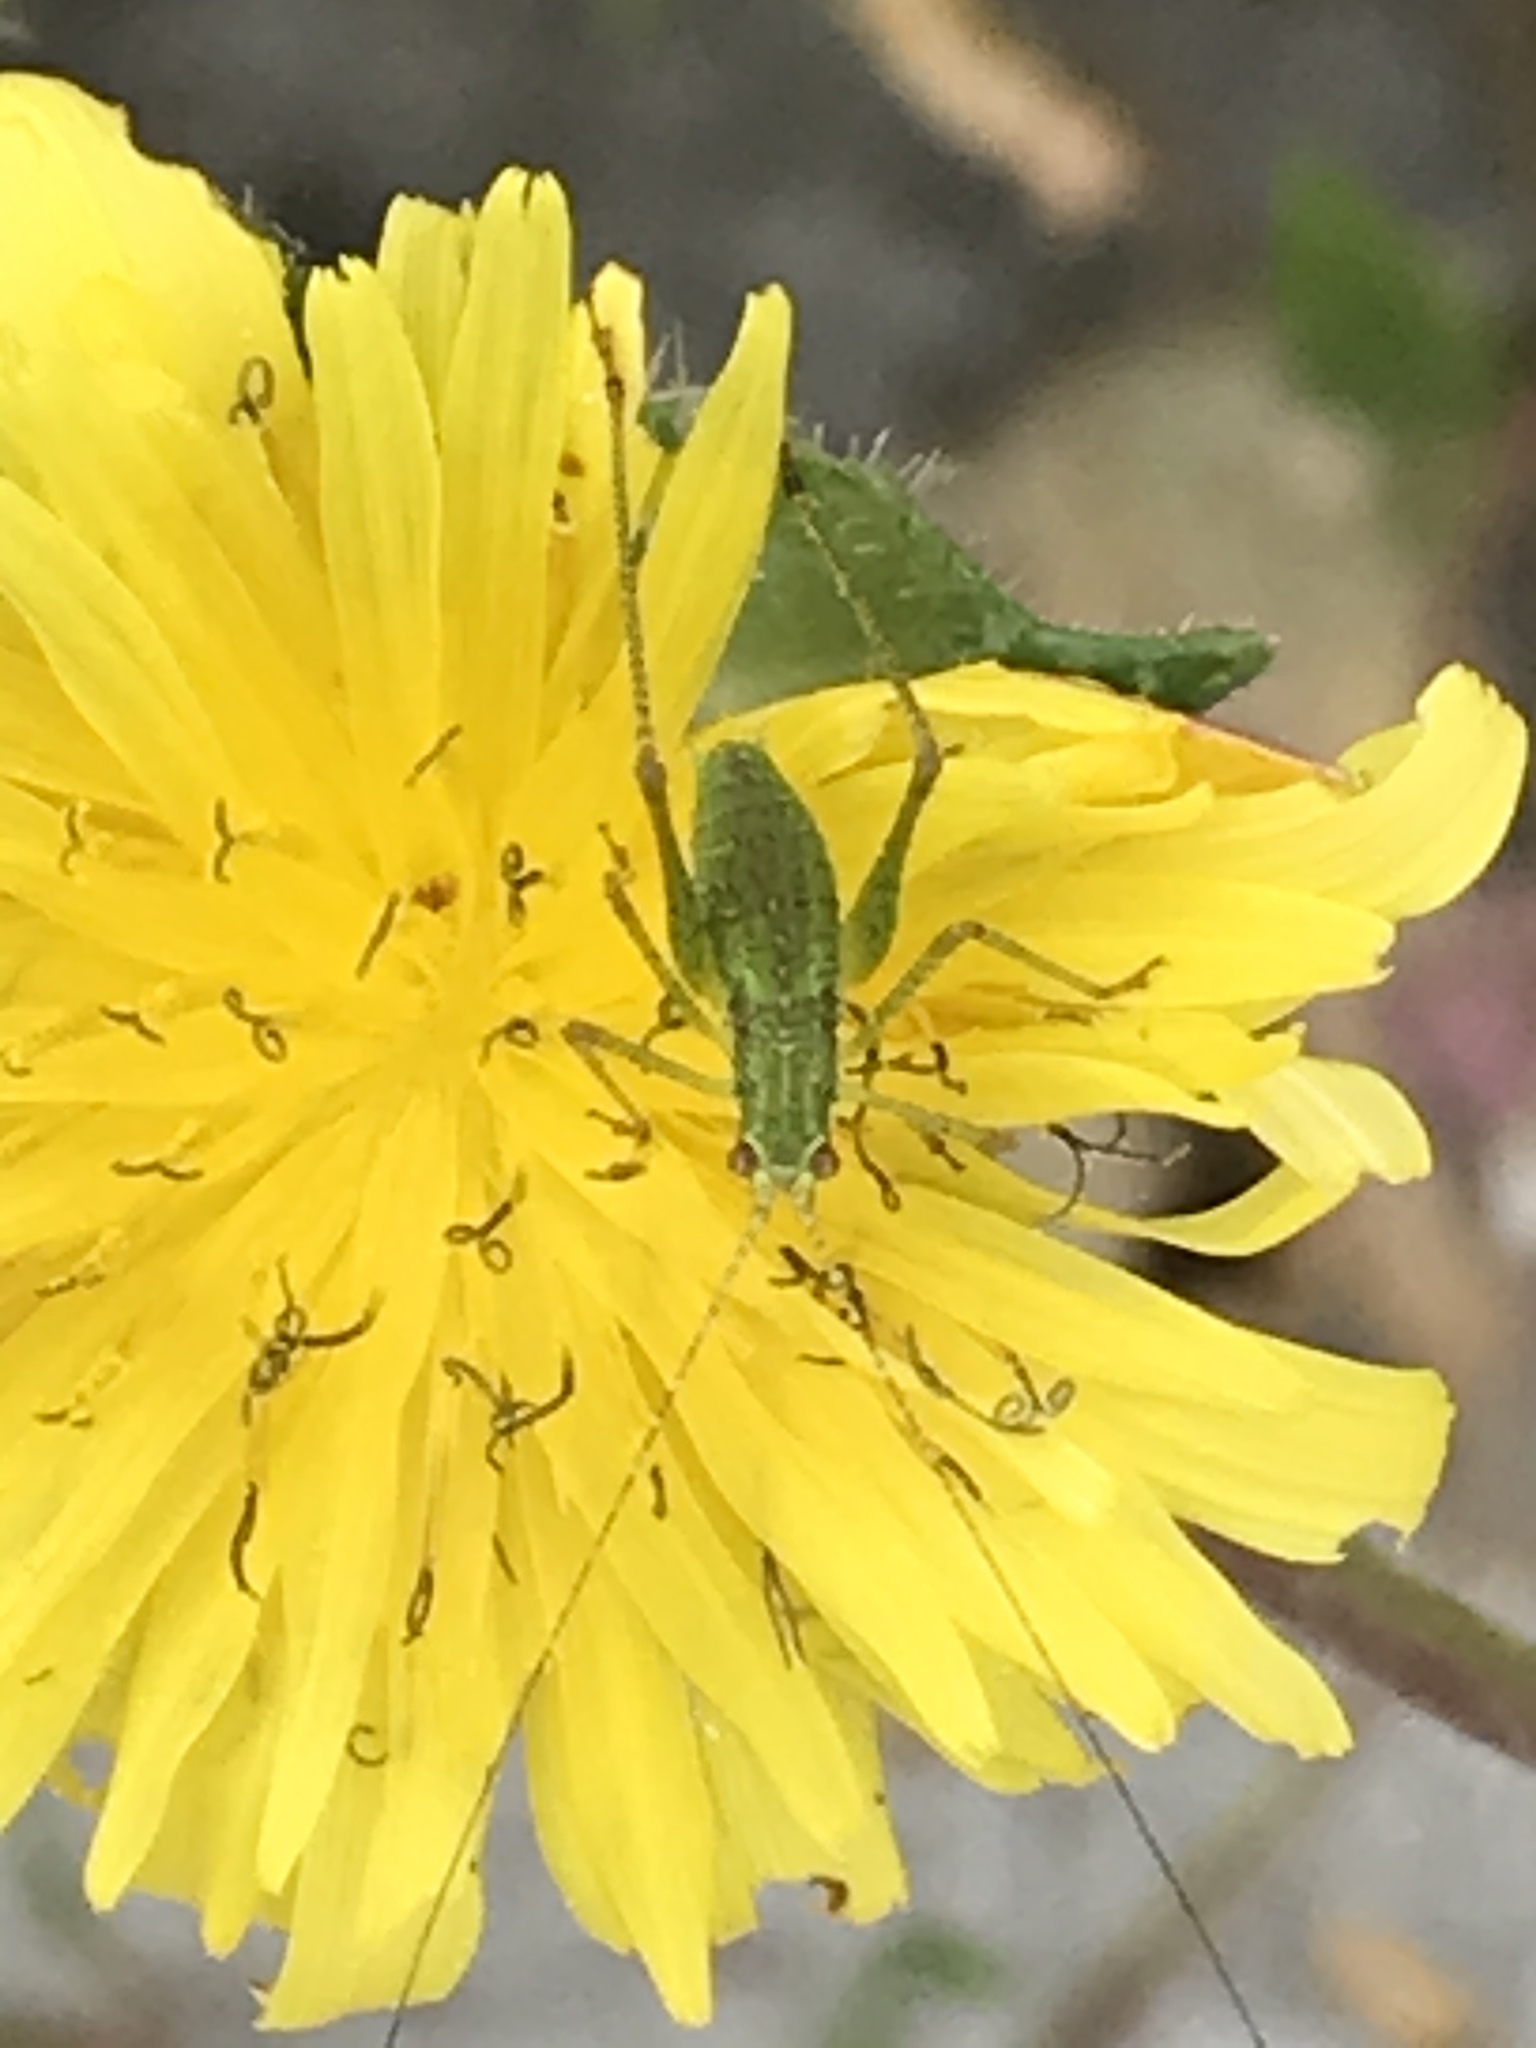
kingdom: Animalia
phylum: Arthropoda
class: Insecta
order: Orthoptera
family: Tettigoniidae
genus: Phaneroptera
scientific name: Phaneroptera nana
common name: Southern sickle bush-cricket
